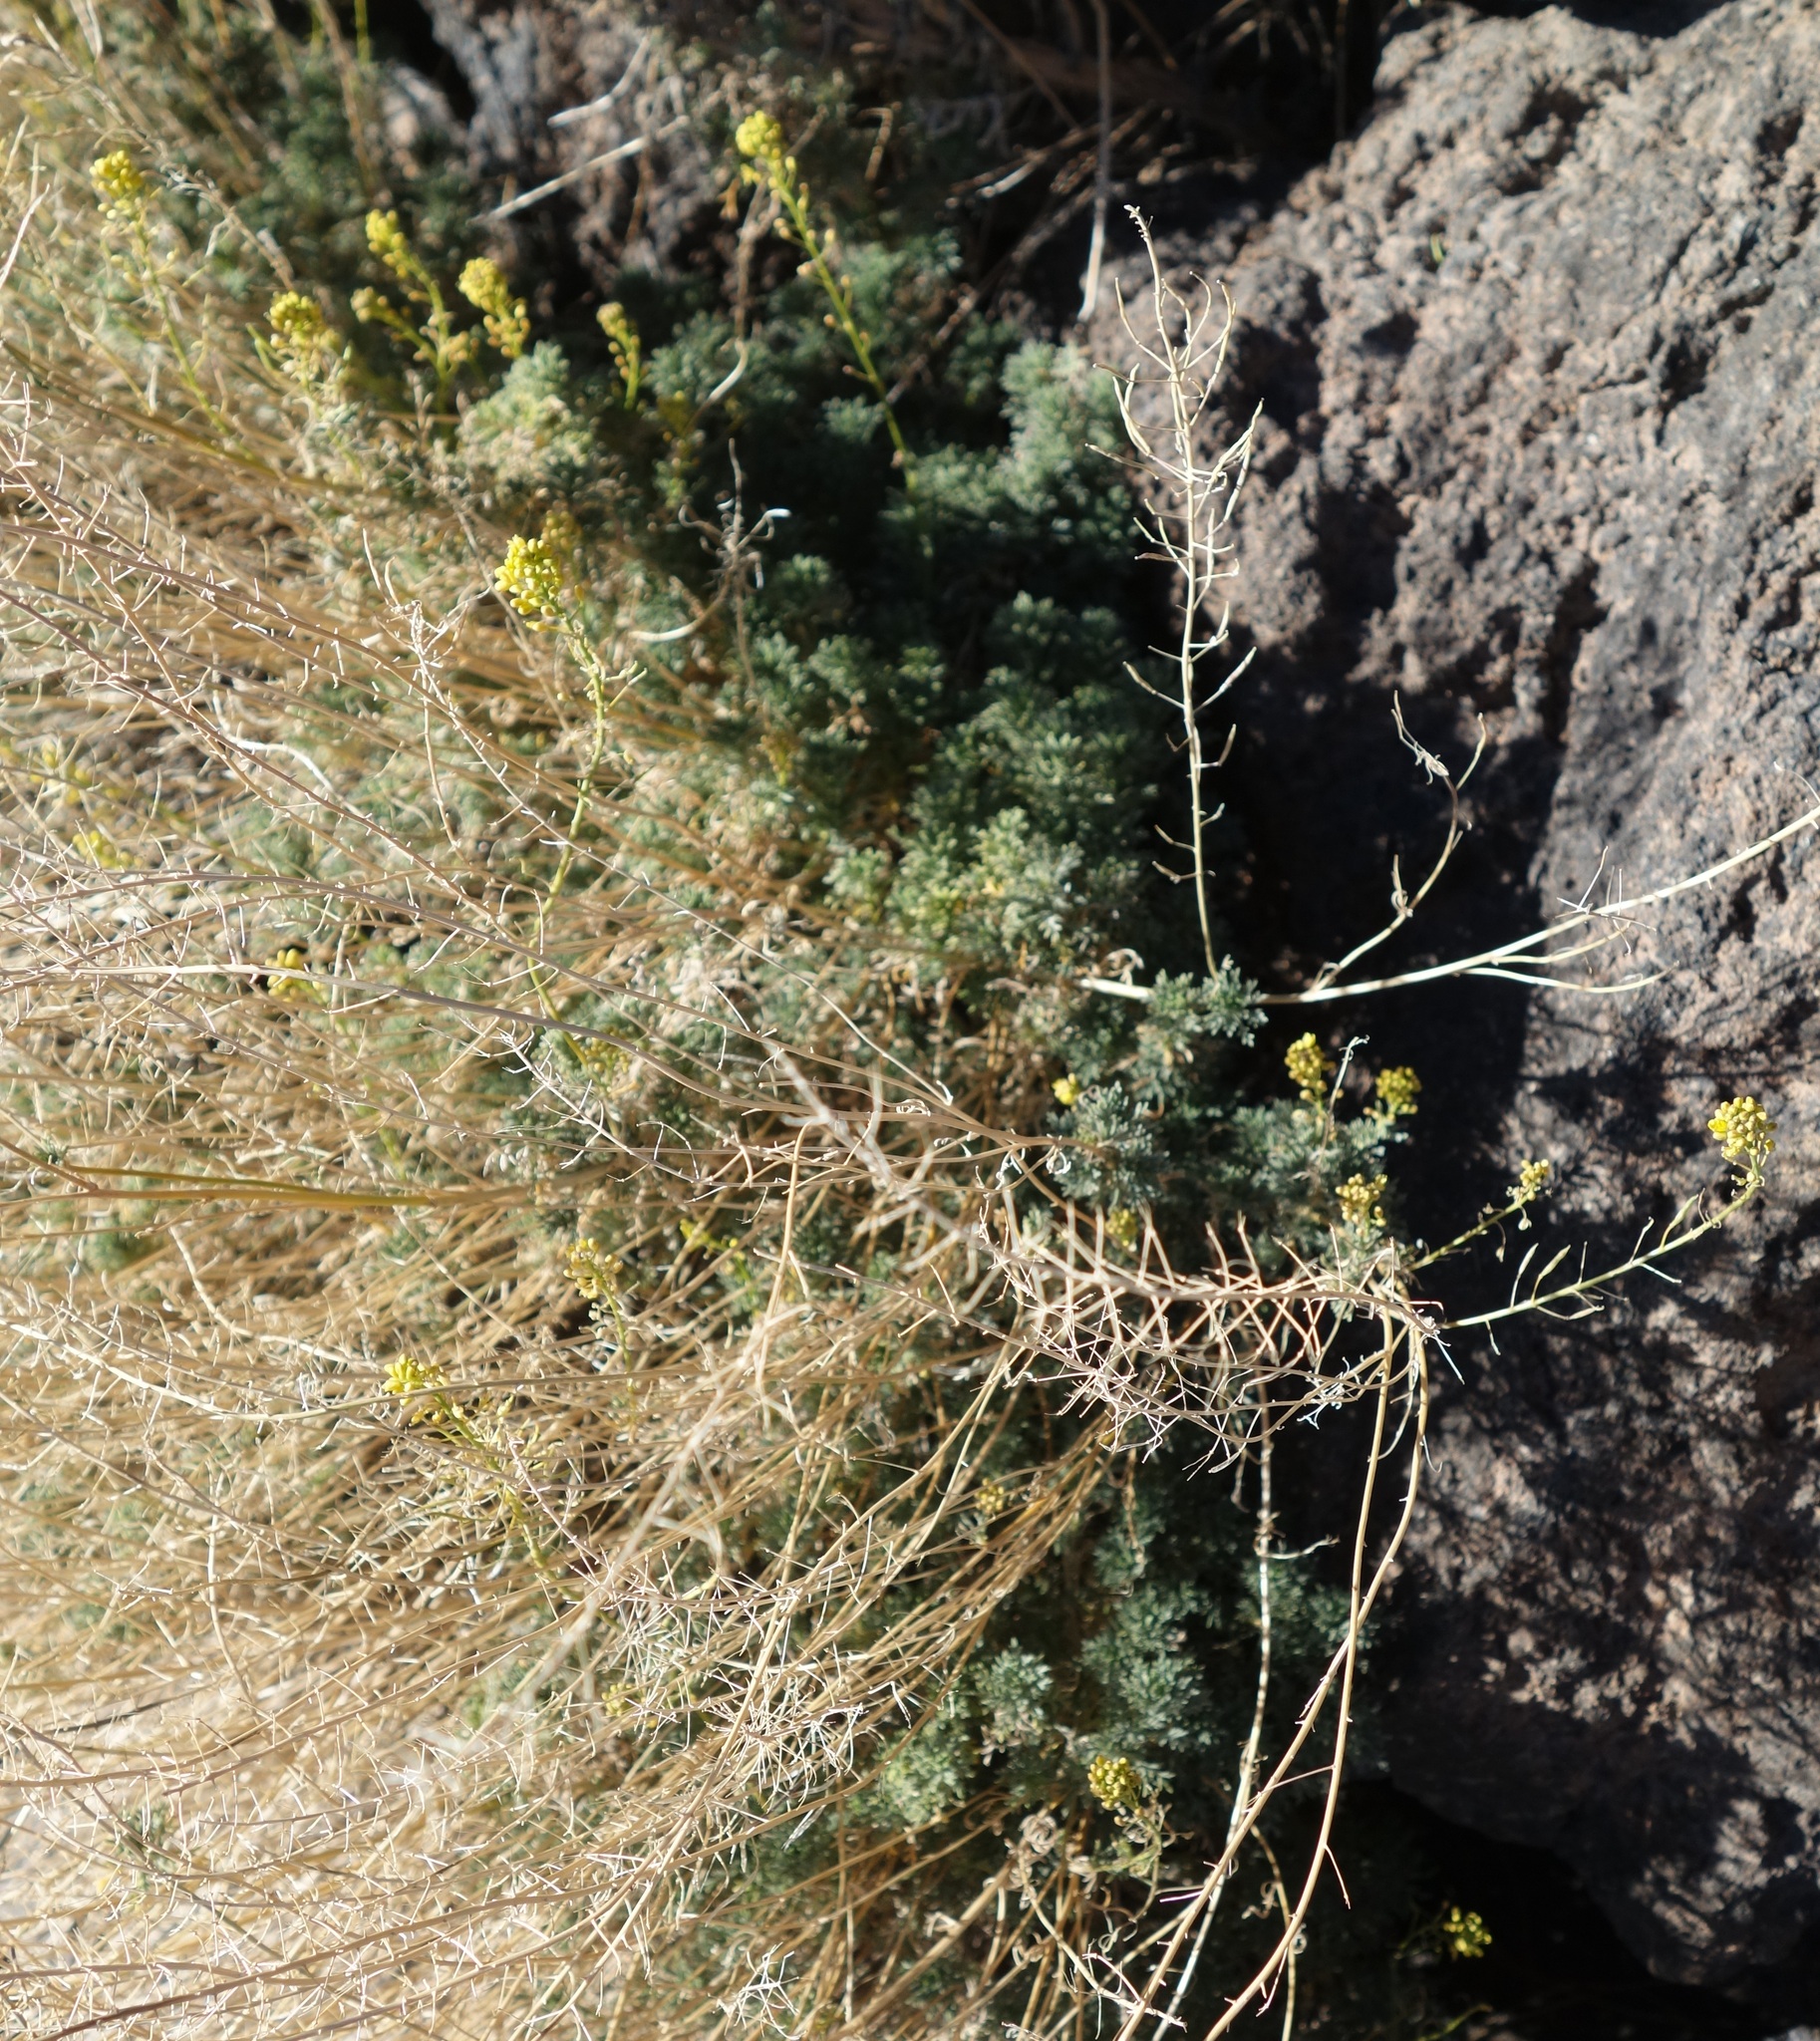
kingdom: Plantae
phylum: Tracheophyta
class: Magnoliopsida
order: Brassicales
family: Brassicaceae
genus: Descurainia
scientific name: Descurainia bourgaeana
